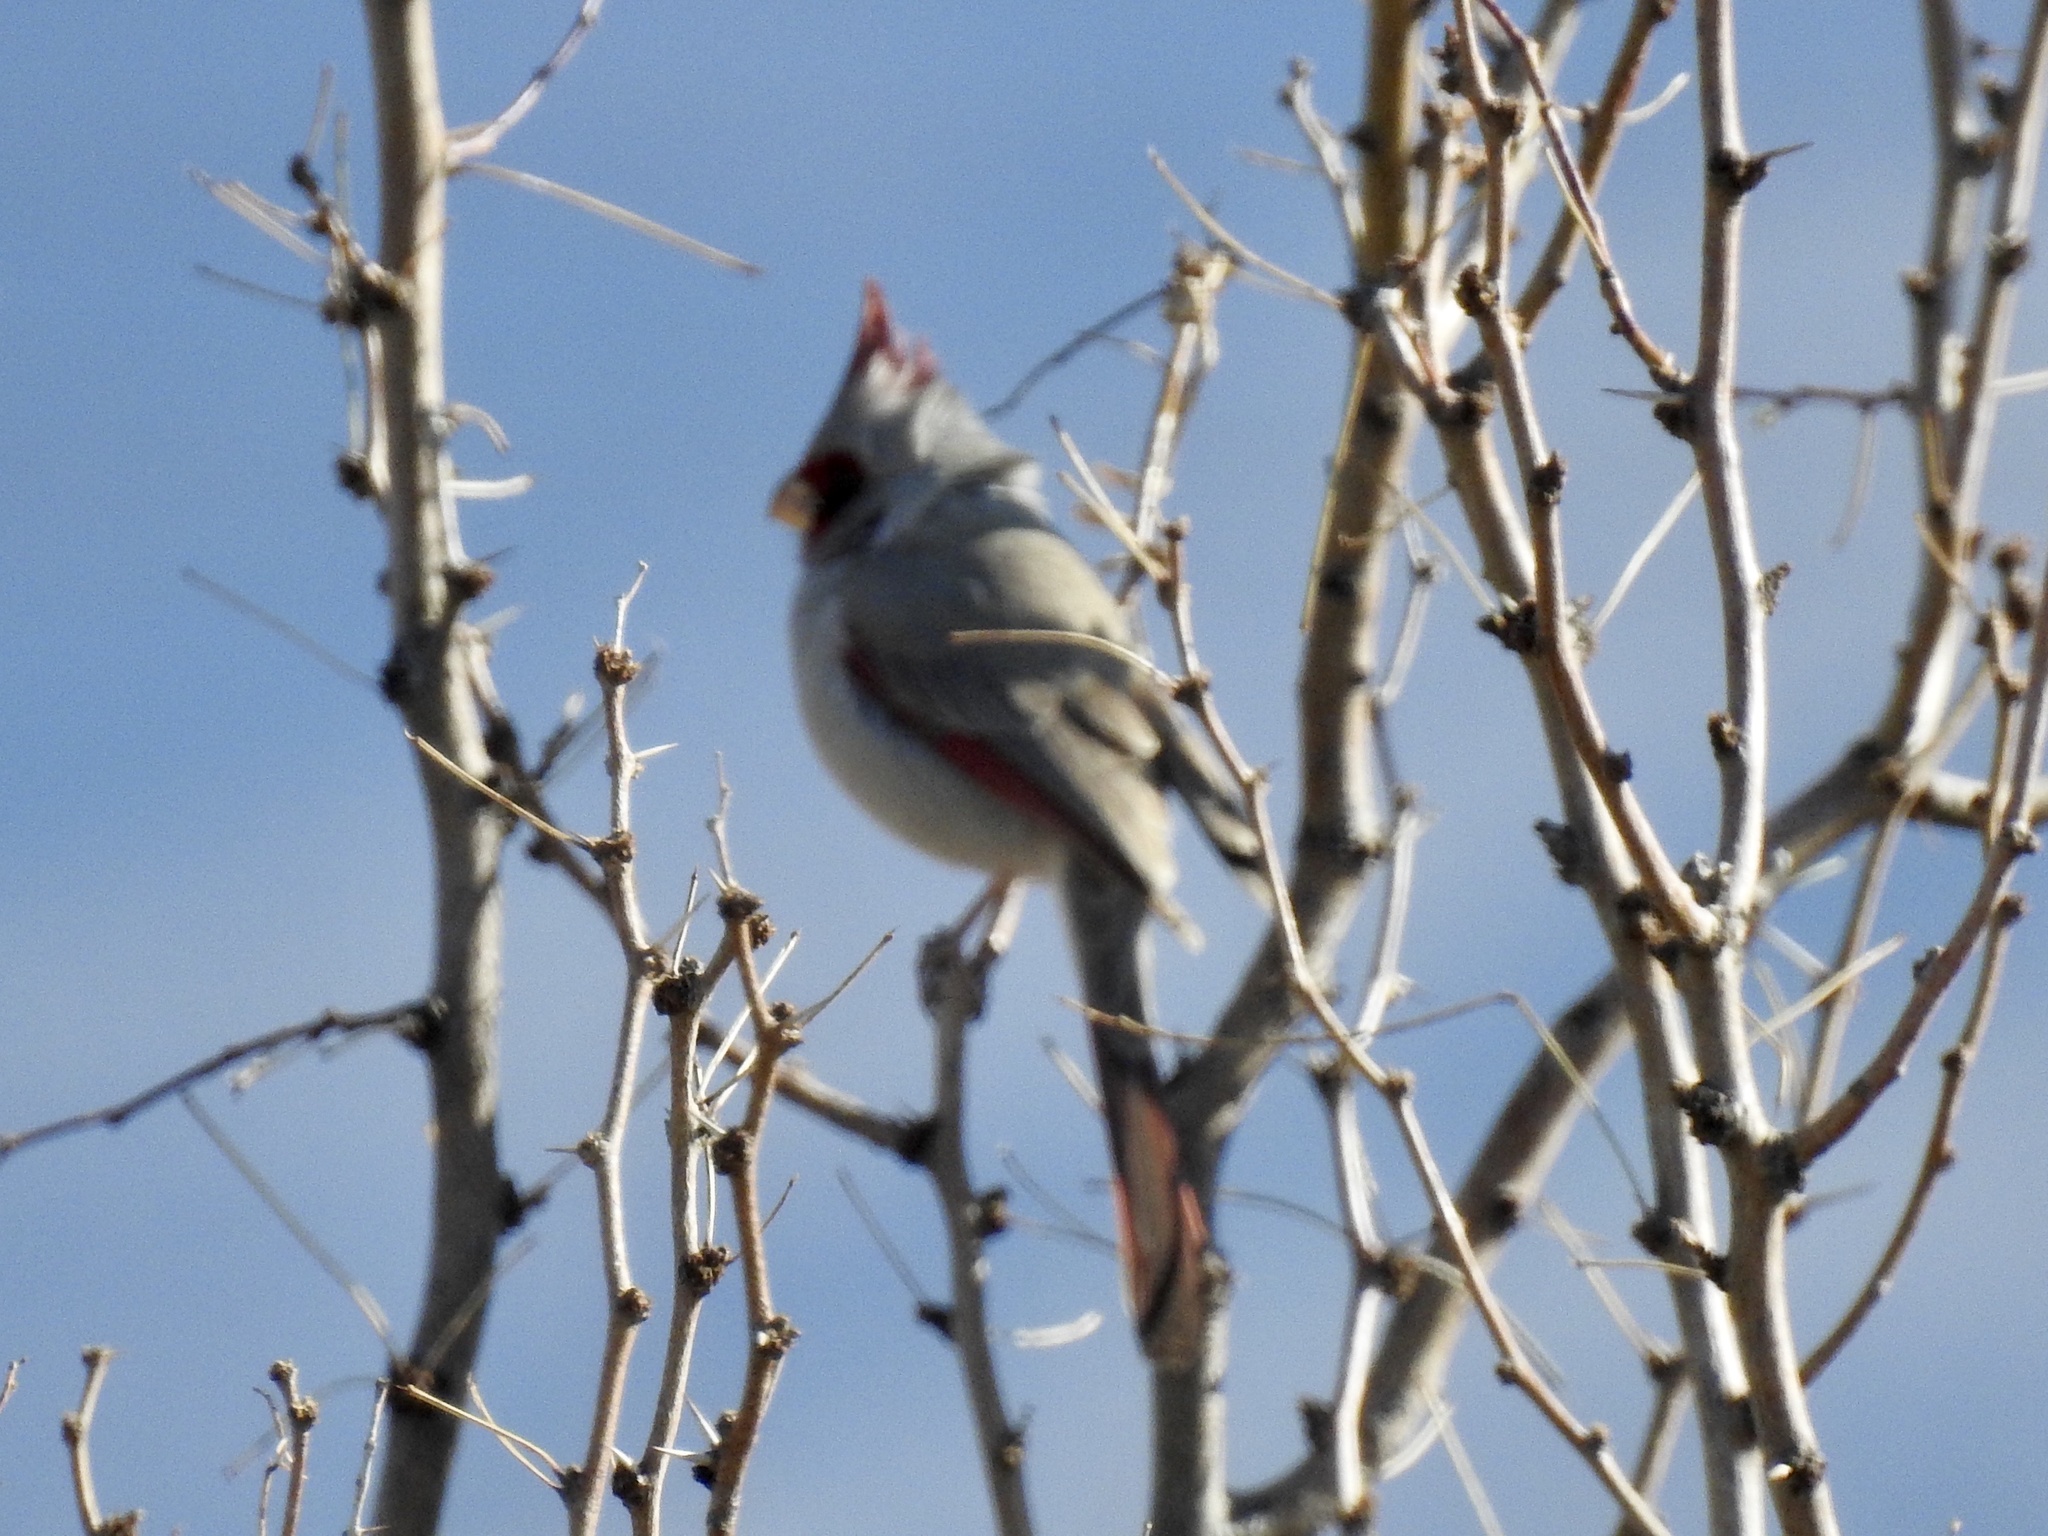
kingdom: Animalia
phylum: Chordata
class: Aves
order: Passeriformes
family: Cardinalidae
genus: Cardinalis
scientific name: Cardinalis sinuatus
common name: Pyrrhuloxia
